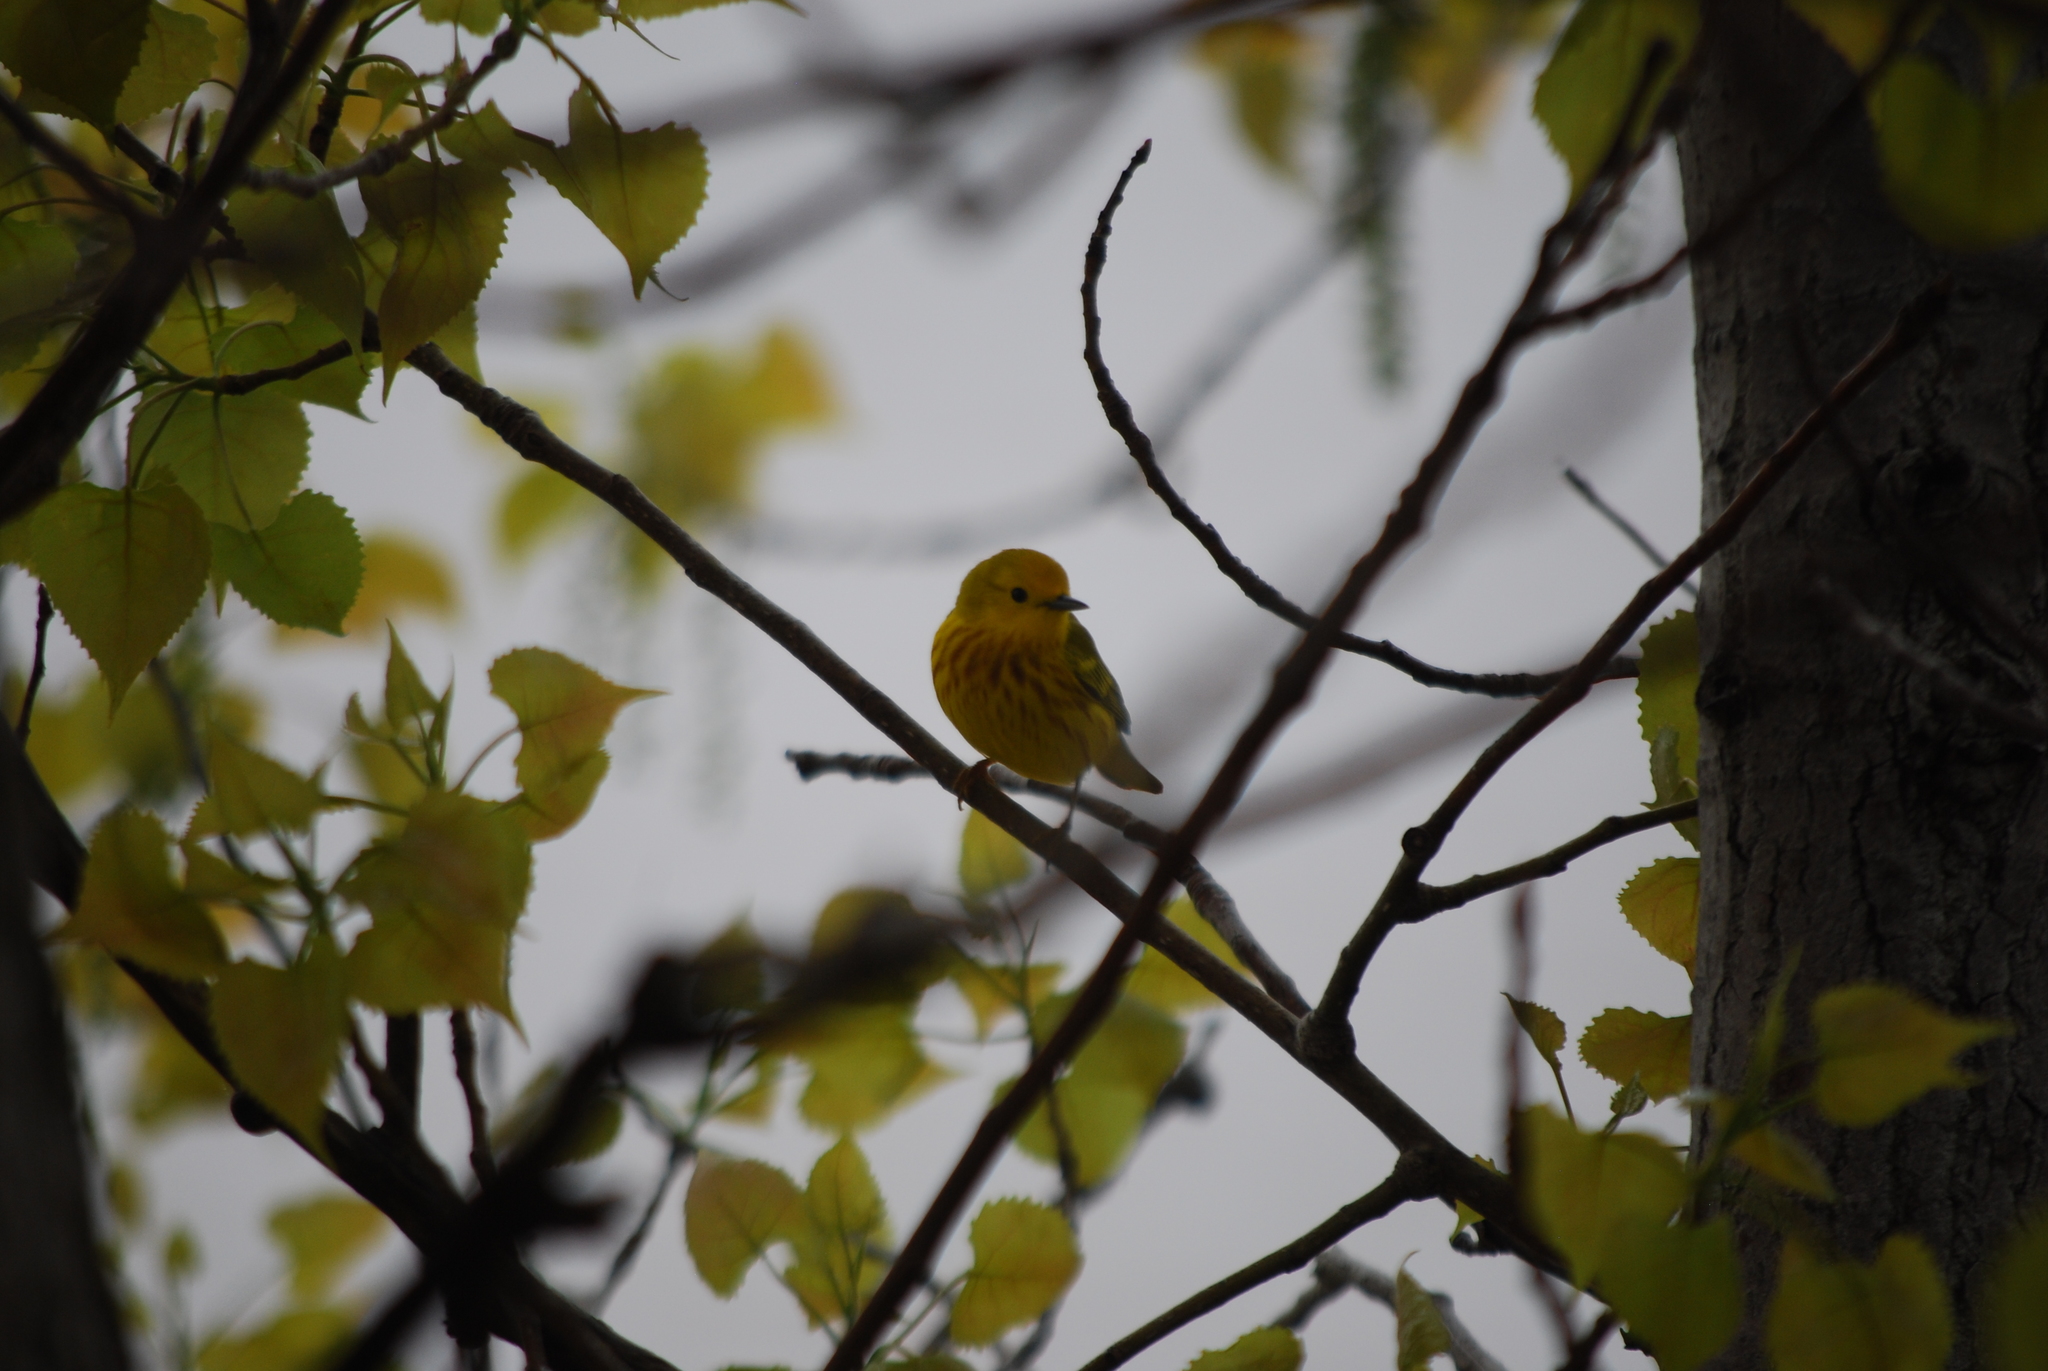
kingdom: Animalia
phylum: Chordata
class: Aves
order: Passeriformes
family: Parulidae
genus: Setophaga
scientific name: Setophaga petechia
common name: Yellow warbler
